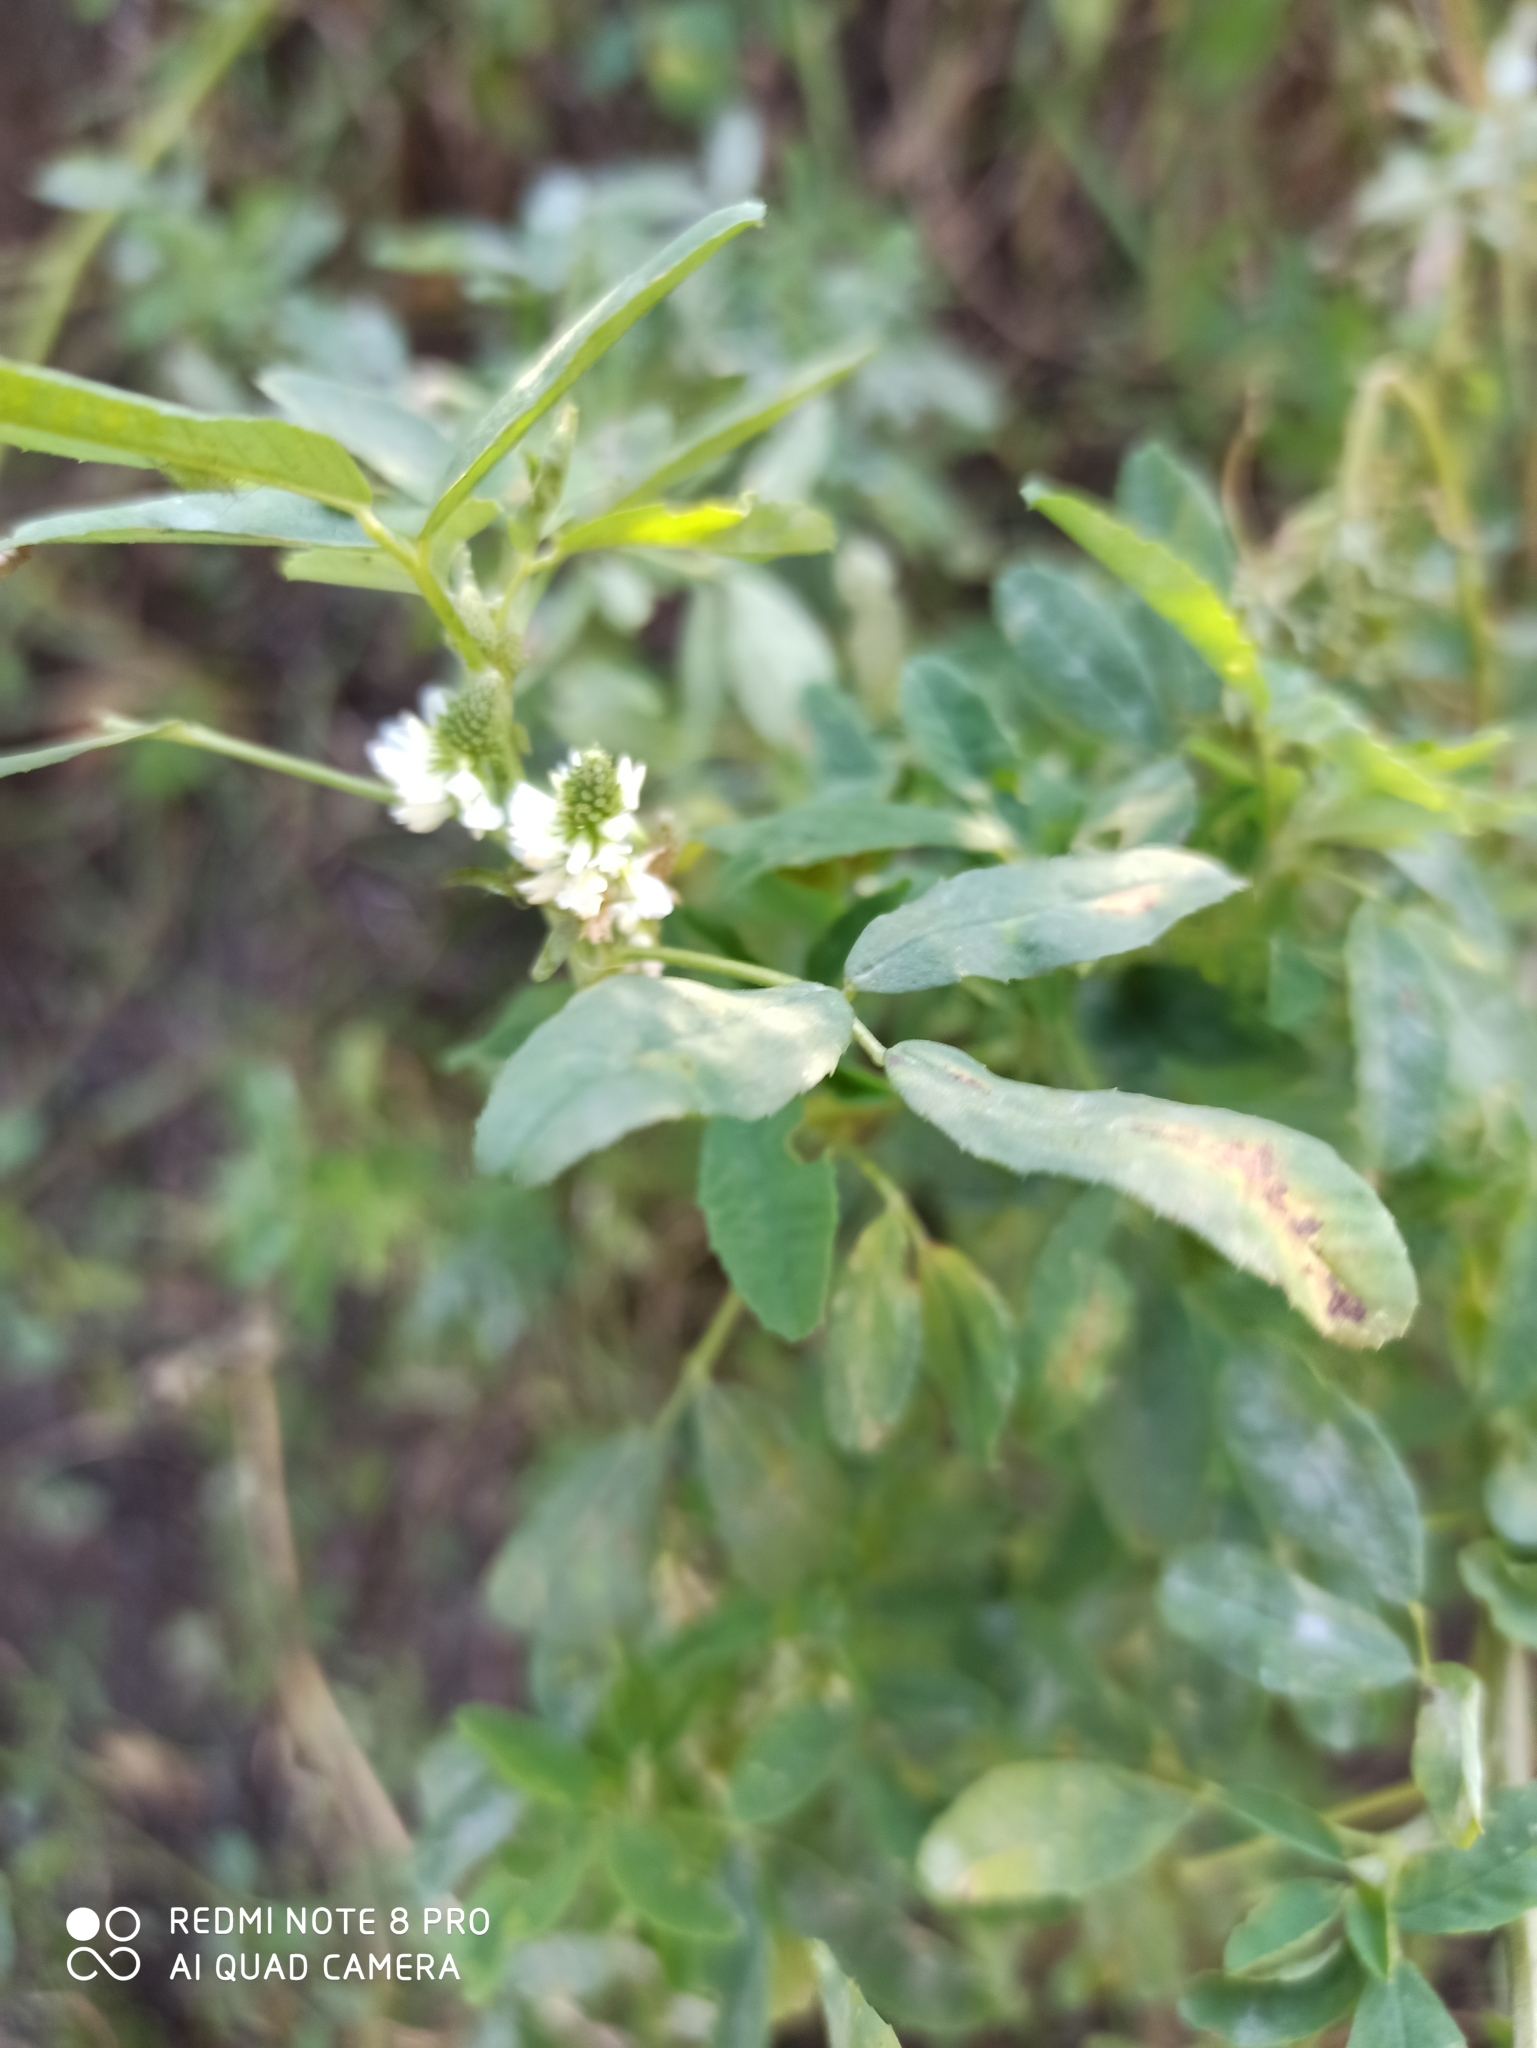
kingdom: Plantae
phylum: Tracheophyta
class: Magnoliopsida
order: Fabales
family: Fabaceae
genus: Melilotus
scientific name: Melilotus albus
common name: White melilot
